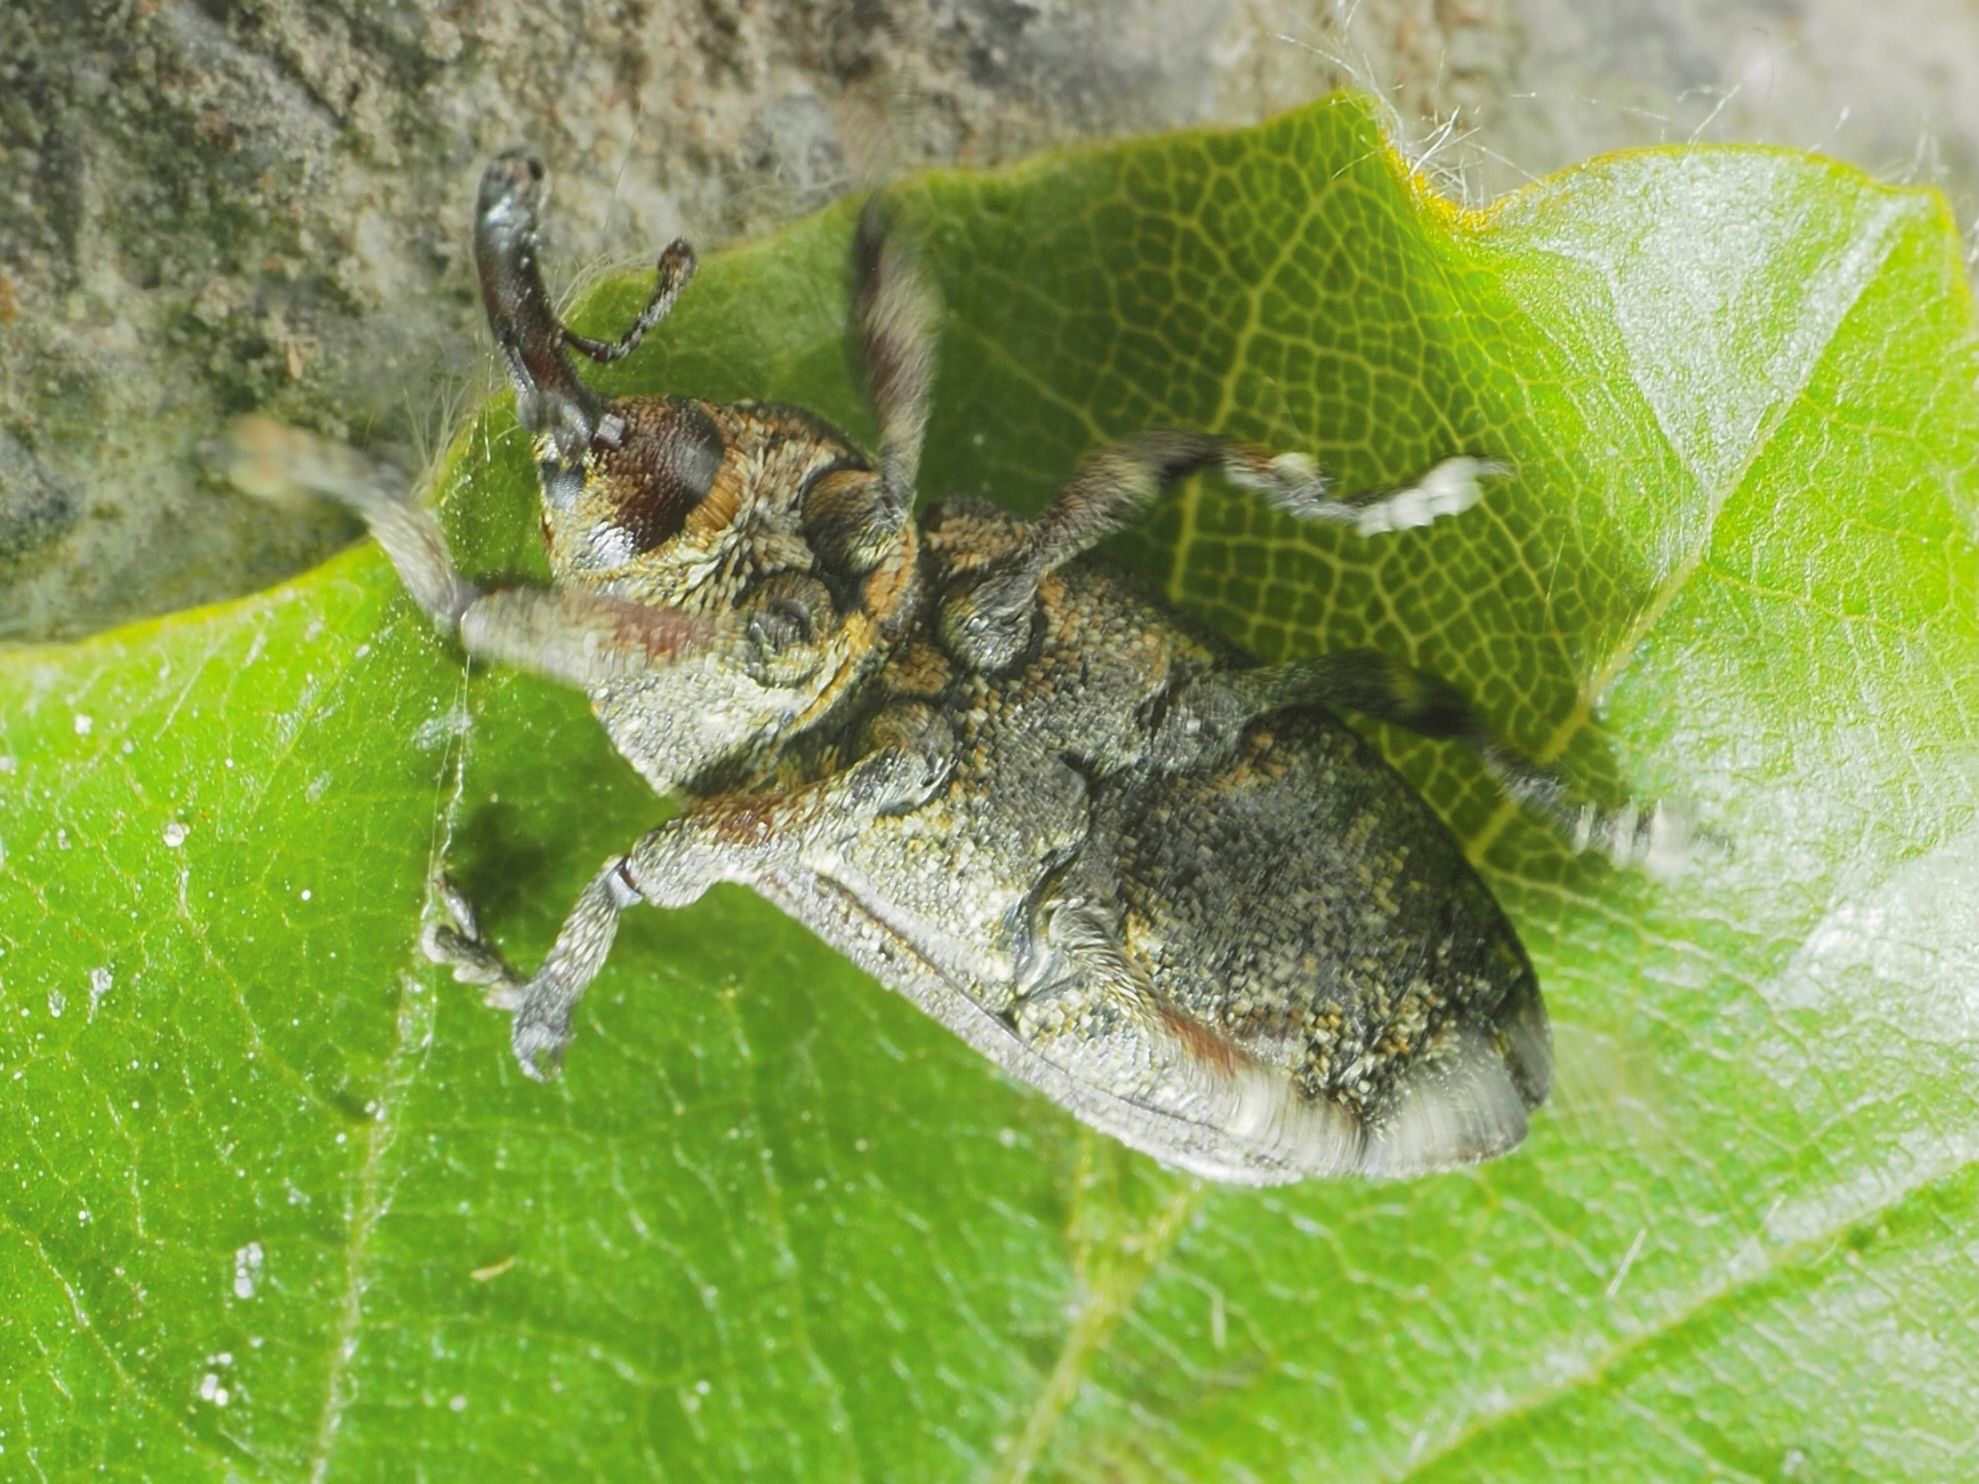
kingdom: Animalia
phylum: Arthropoda
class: Insecta
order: Coleoptera
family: Curculionidae
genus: Pissodes
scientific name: Pissodes piceae
